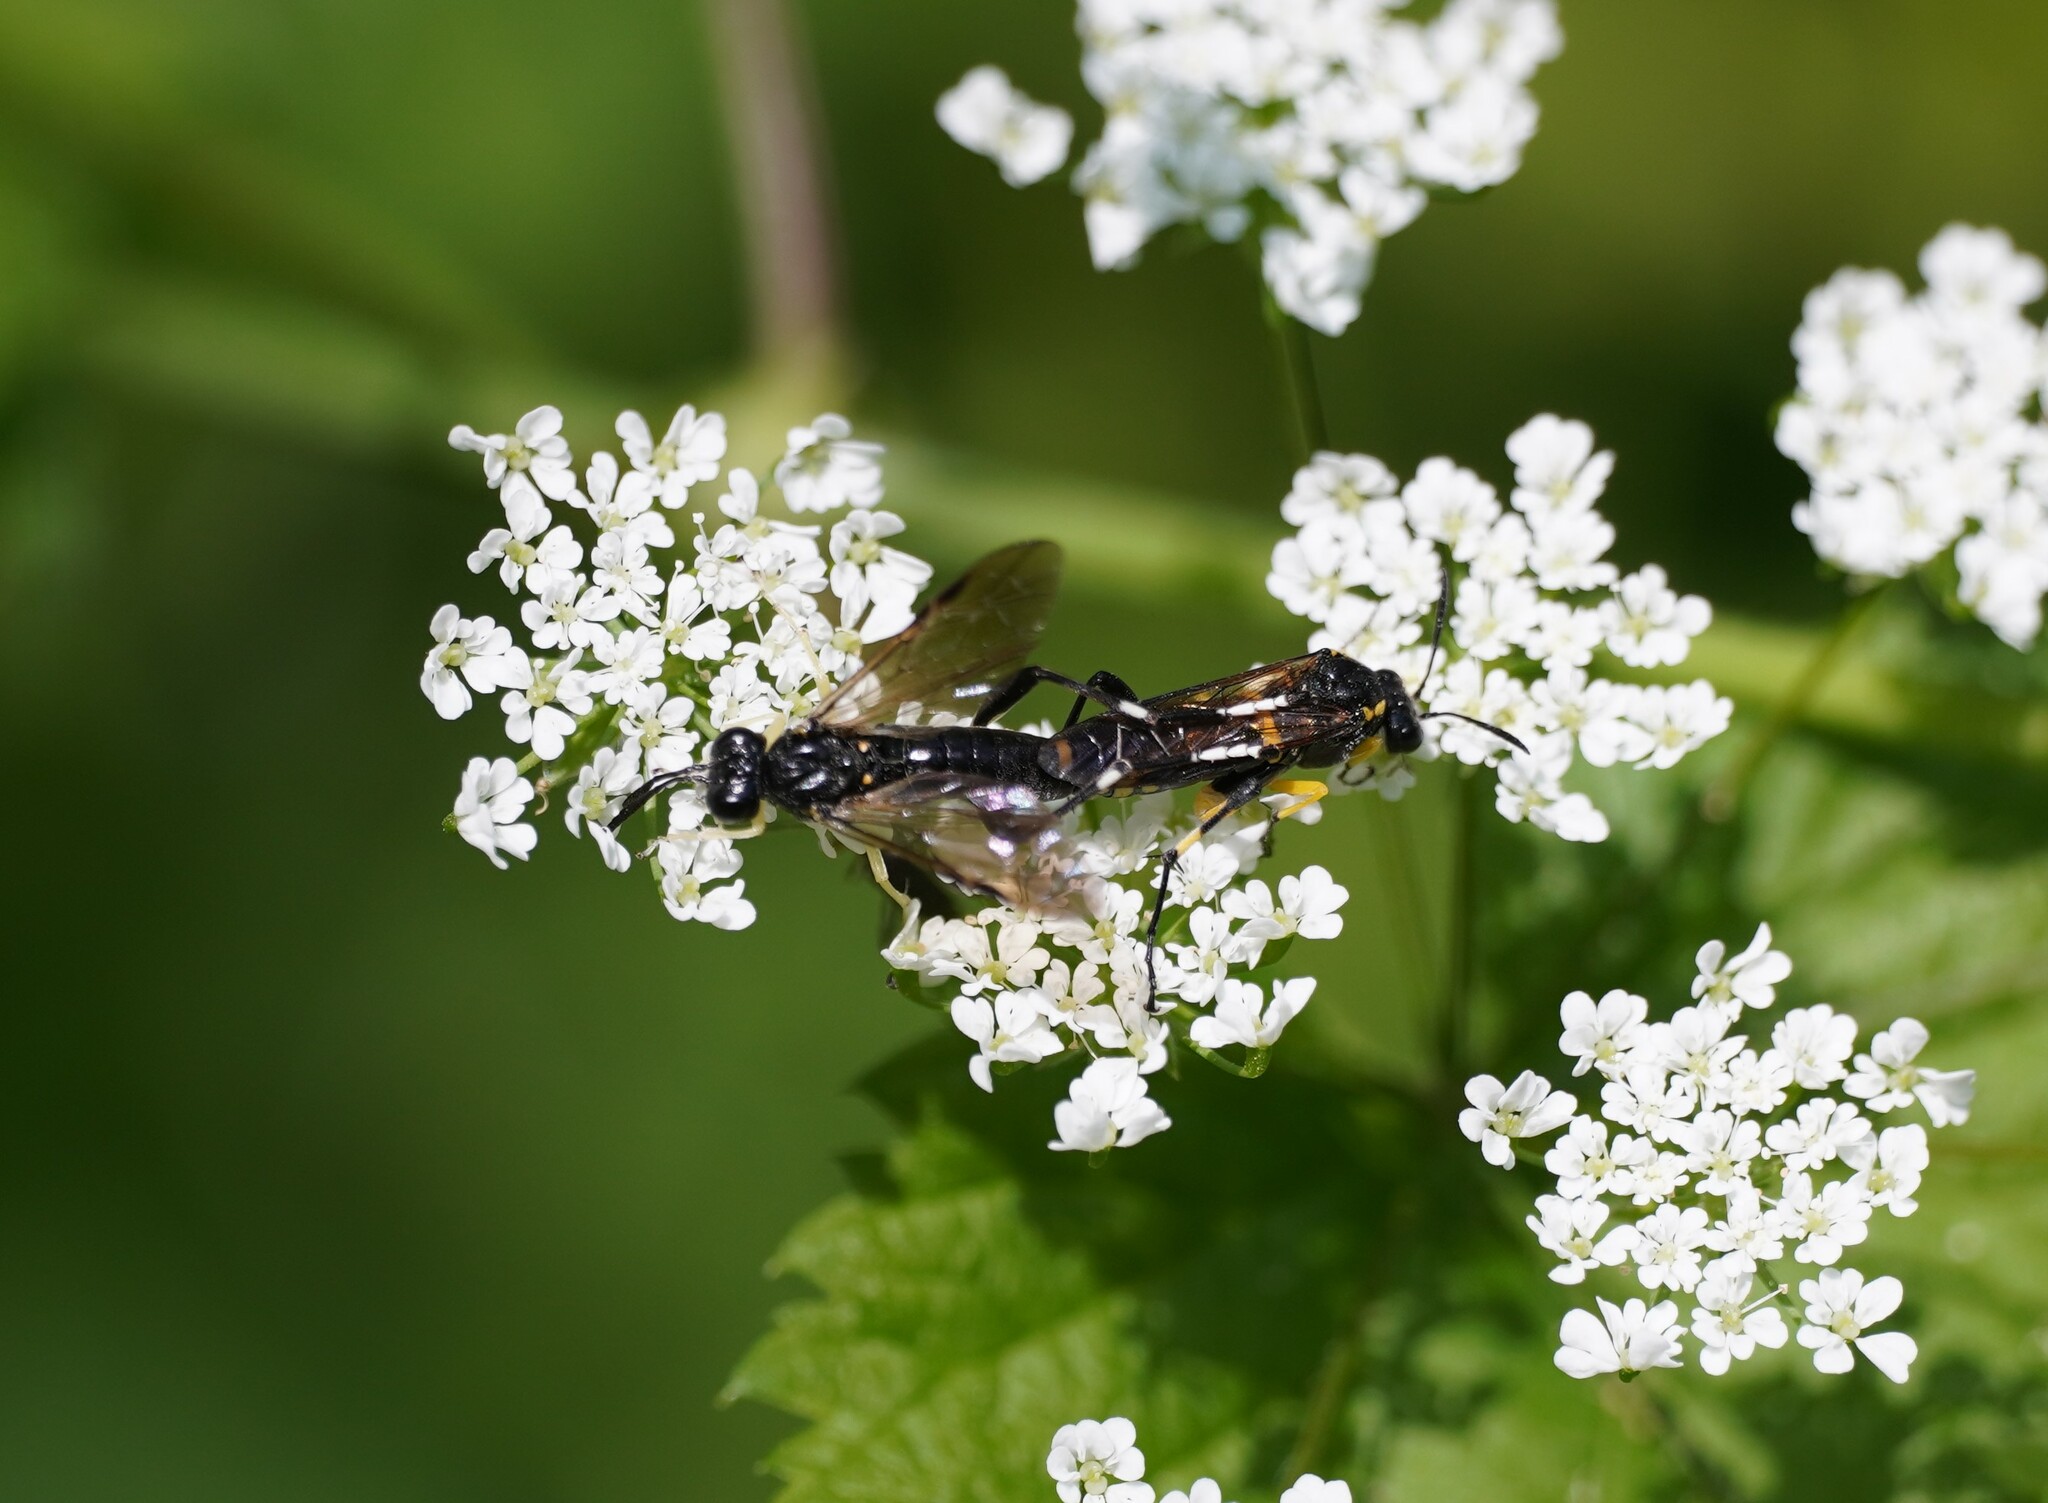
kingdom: Animalia
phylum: Arthropoda
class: Insecta
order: Hymenoptera
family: Tenthredinidae
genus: Macrophya
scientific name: Macrophya montana
